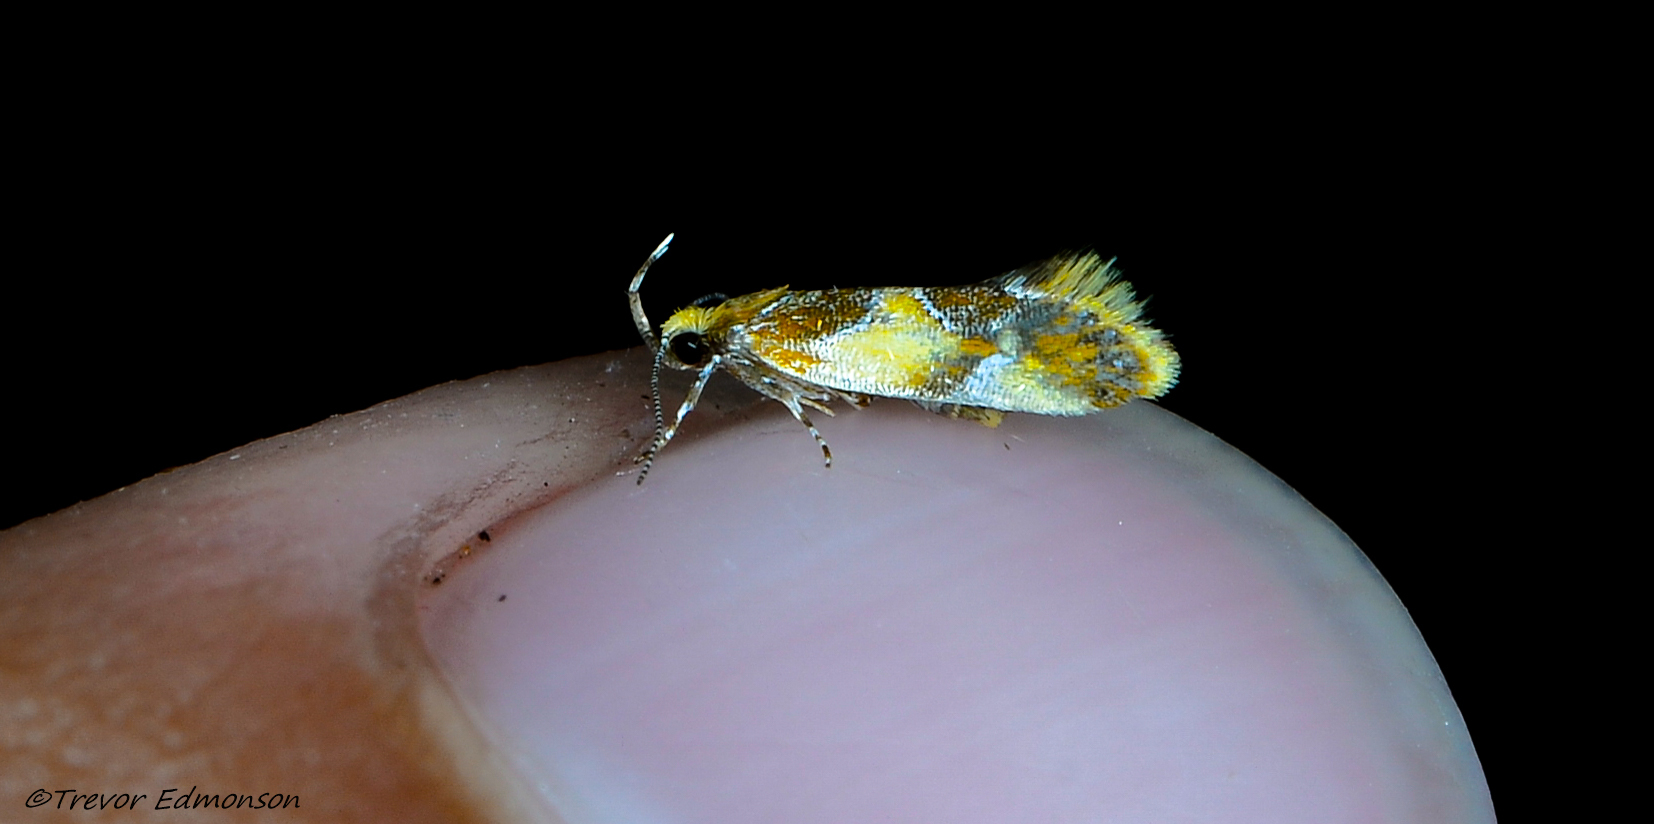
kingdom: Animalia
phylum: Arthropoda
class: Insecta
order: Lepidoptera
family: Oecophoridae
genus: Callima
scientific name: Callima argenticinctella
